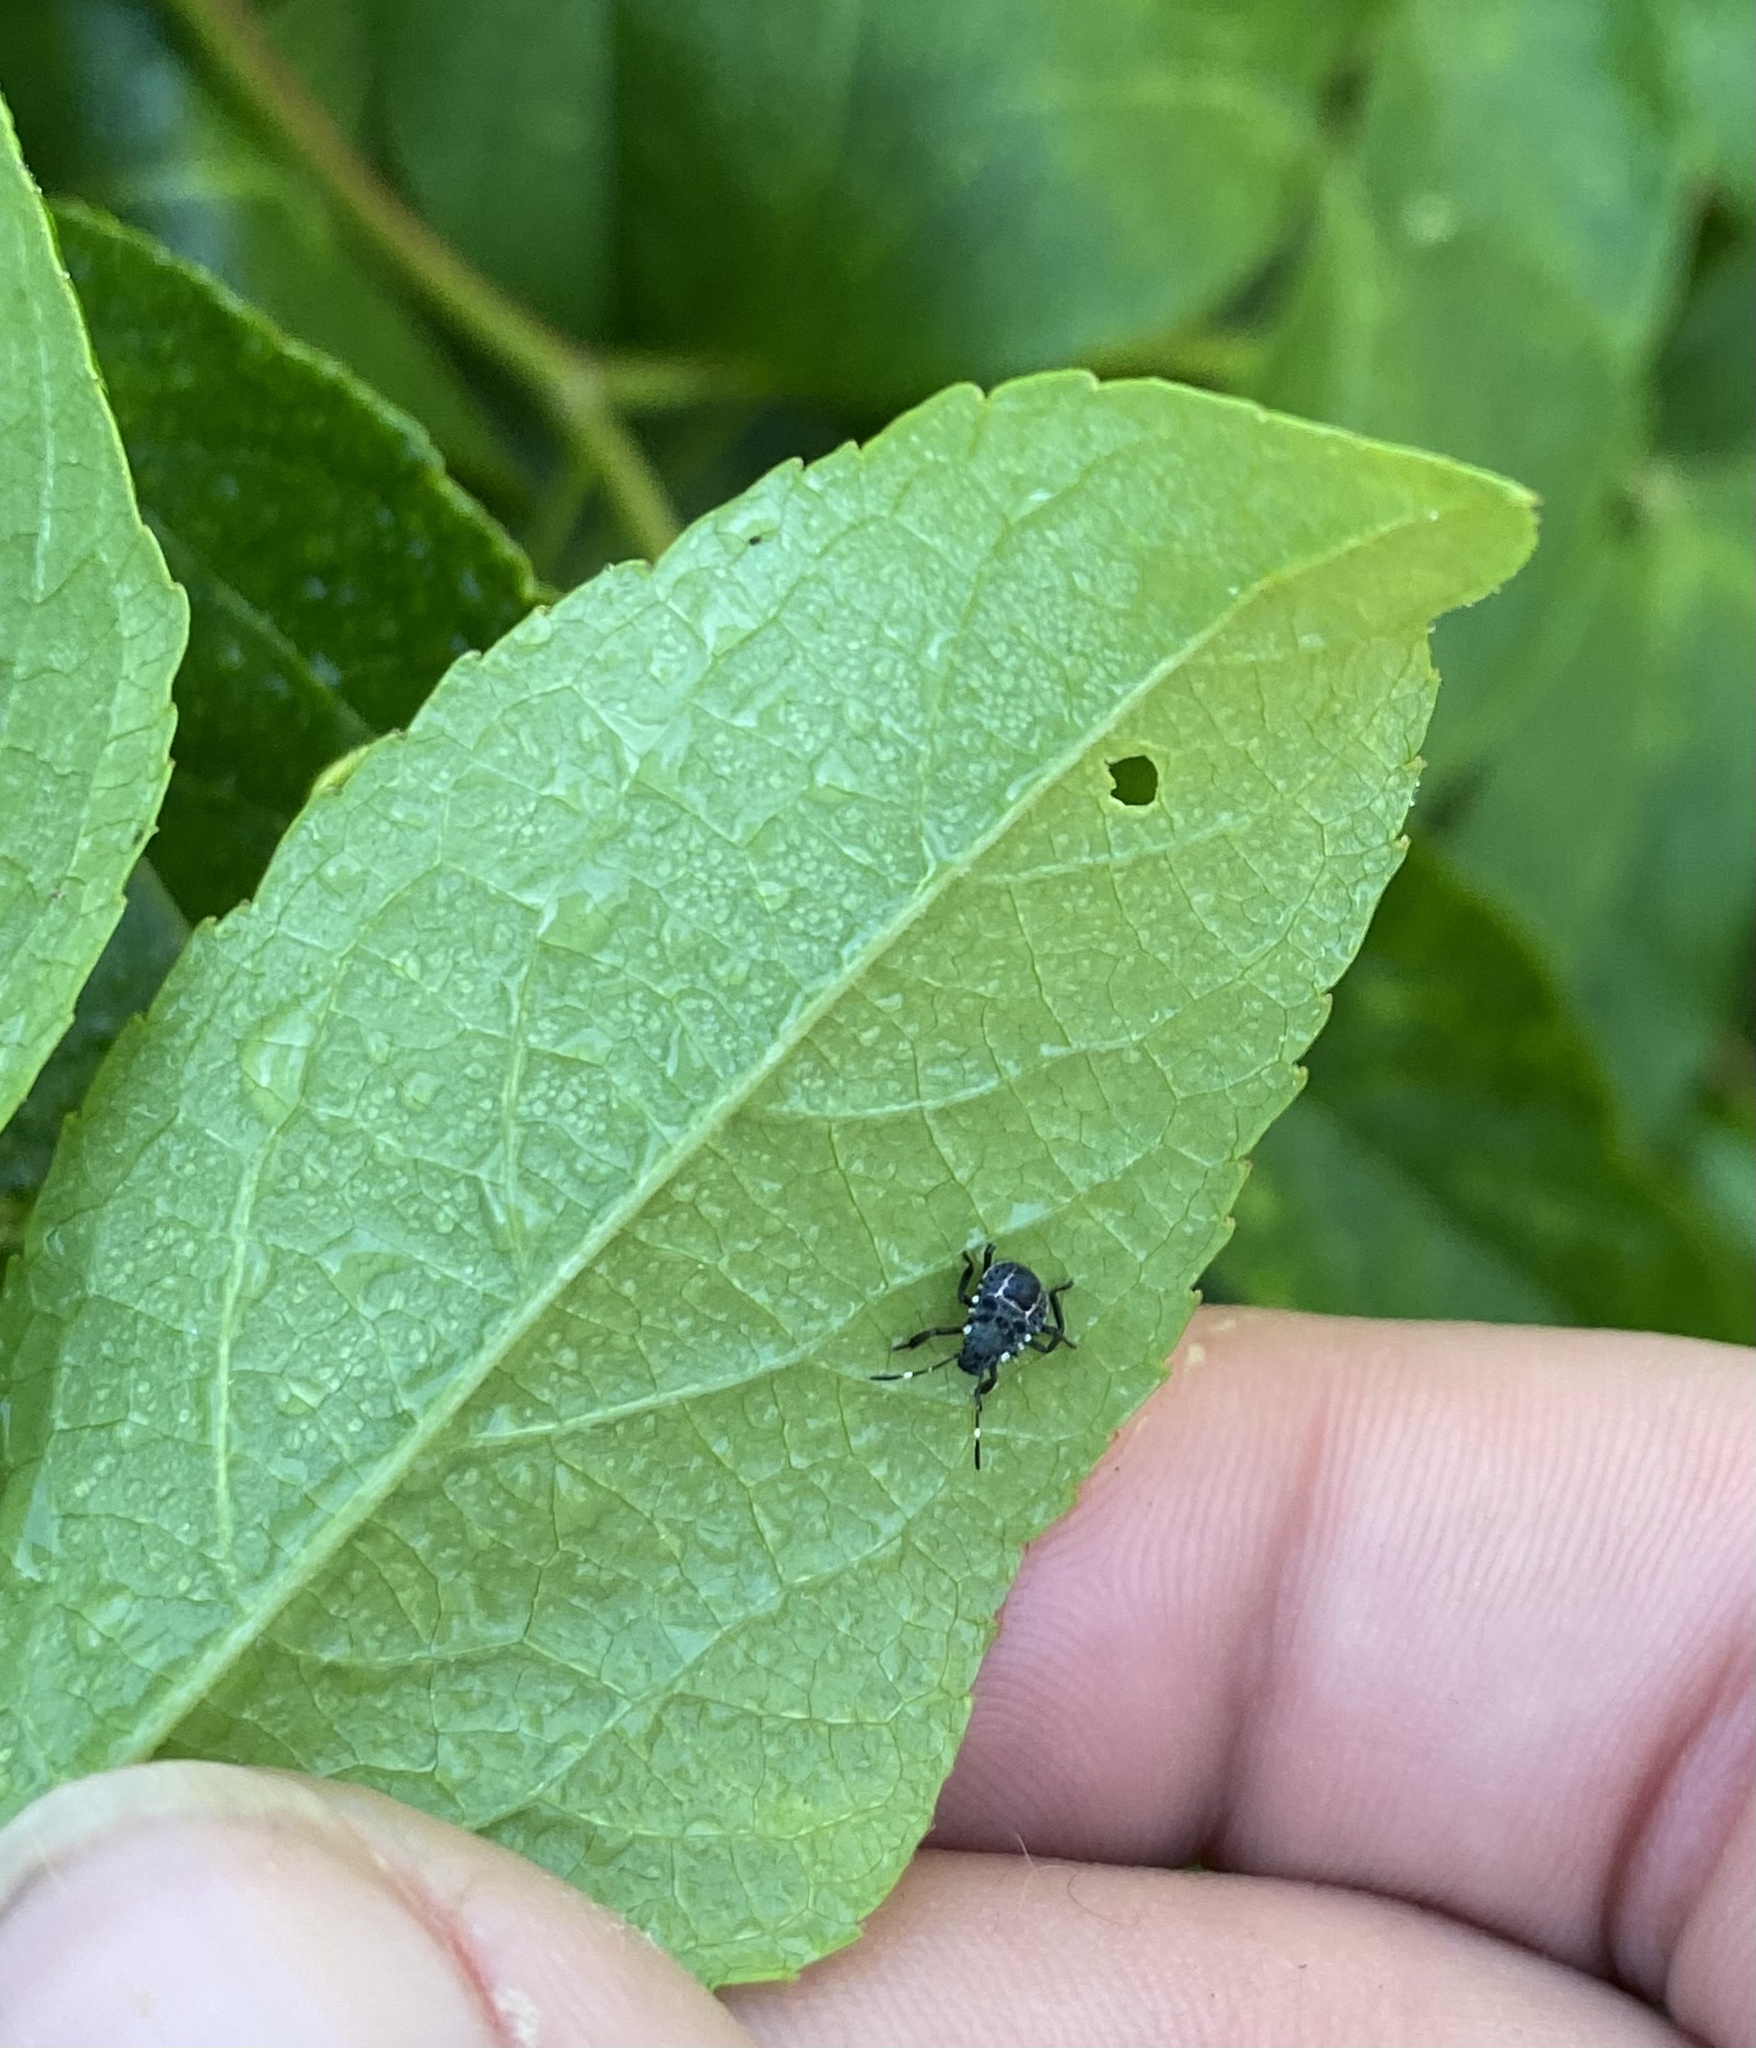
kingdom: Animalia
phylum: Arthropoda
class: Insecta
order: Hemiptera
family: Pentatomidae
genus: Halyomorpha
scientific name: Halyomorpha halys
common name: Brown marmorated stink bug
